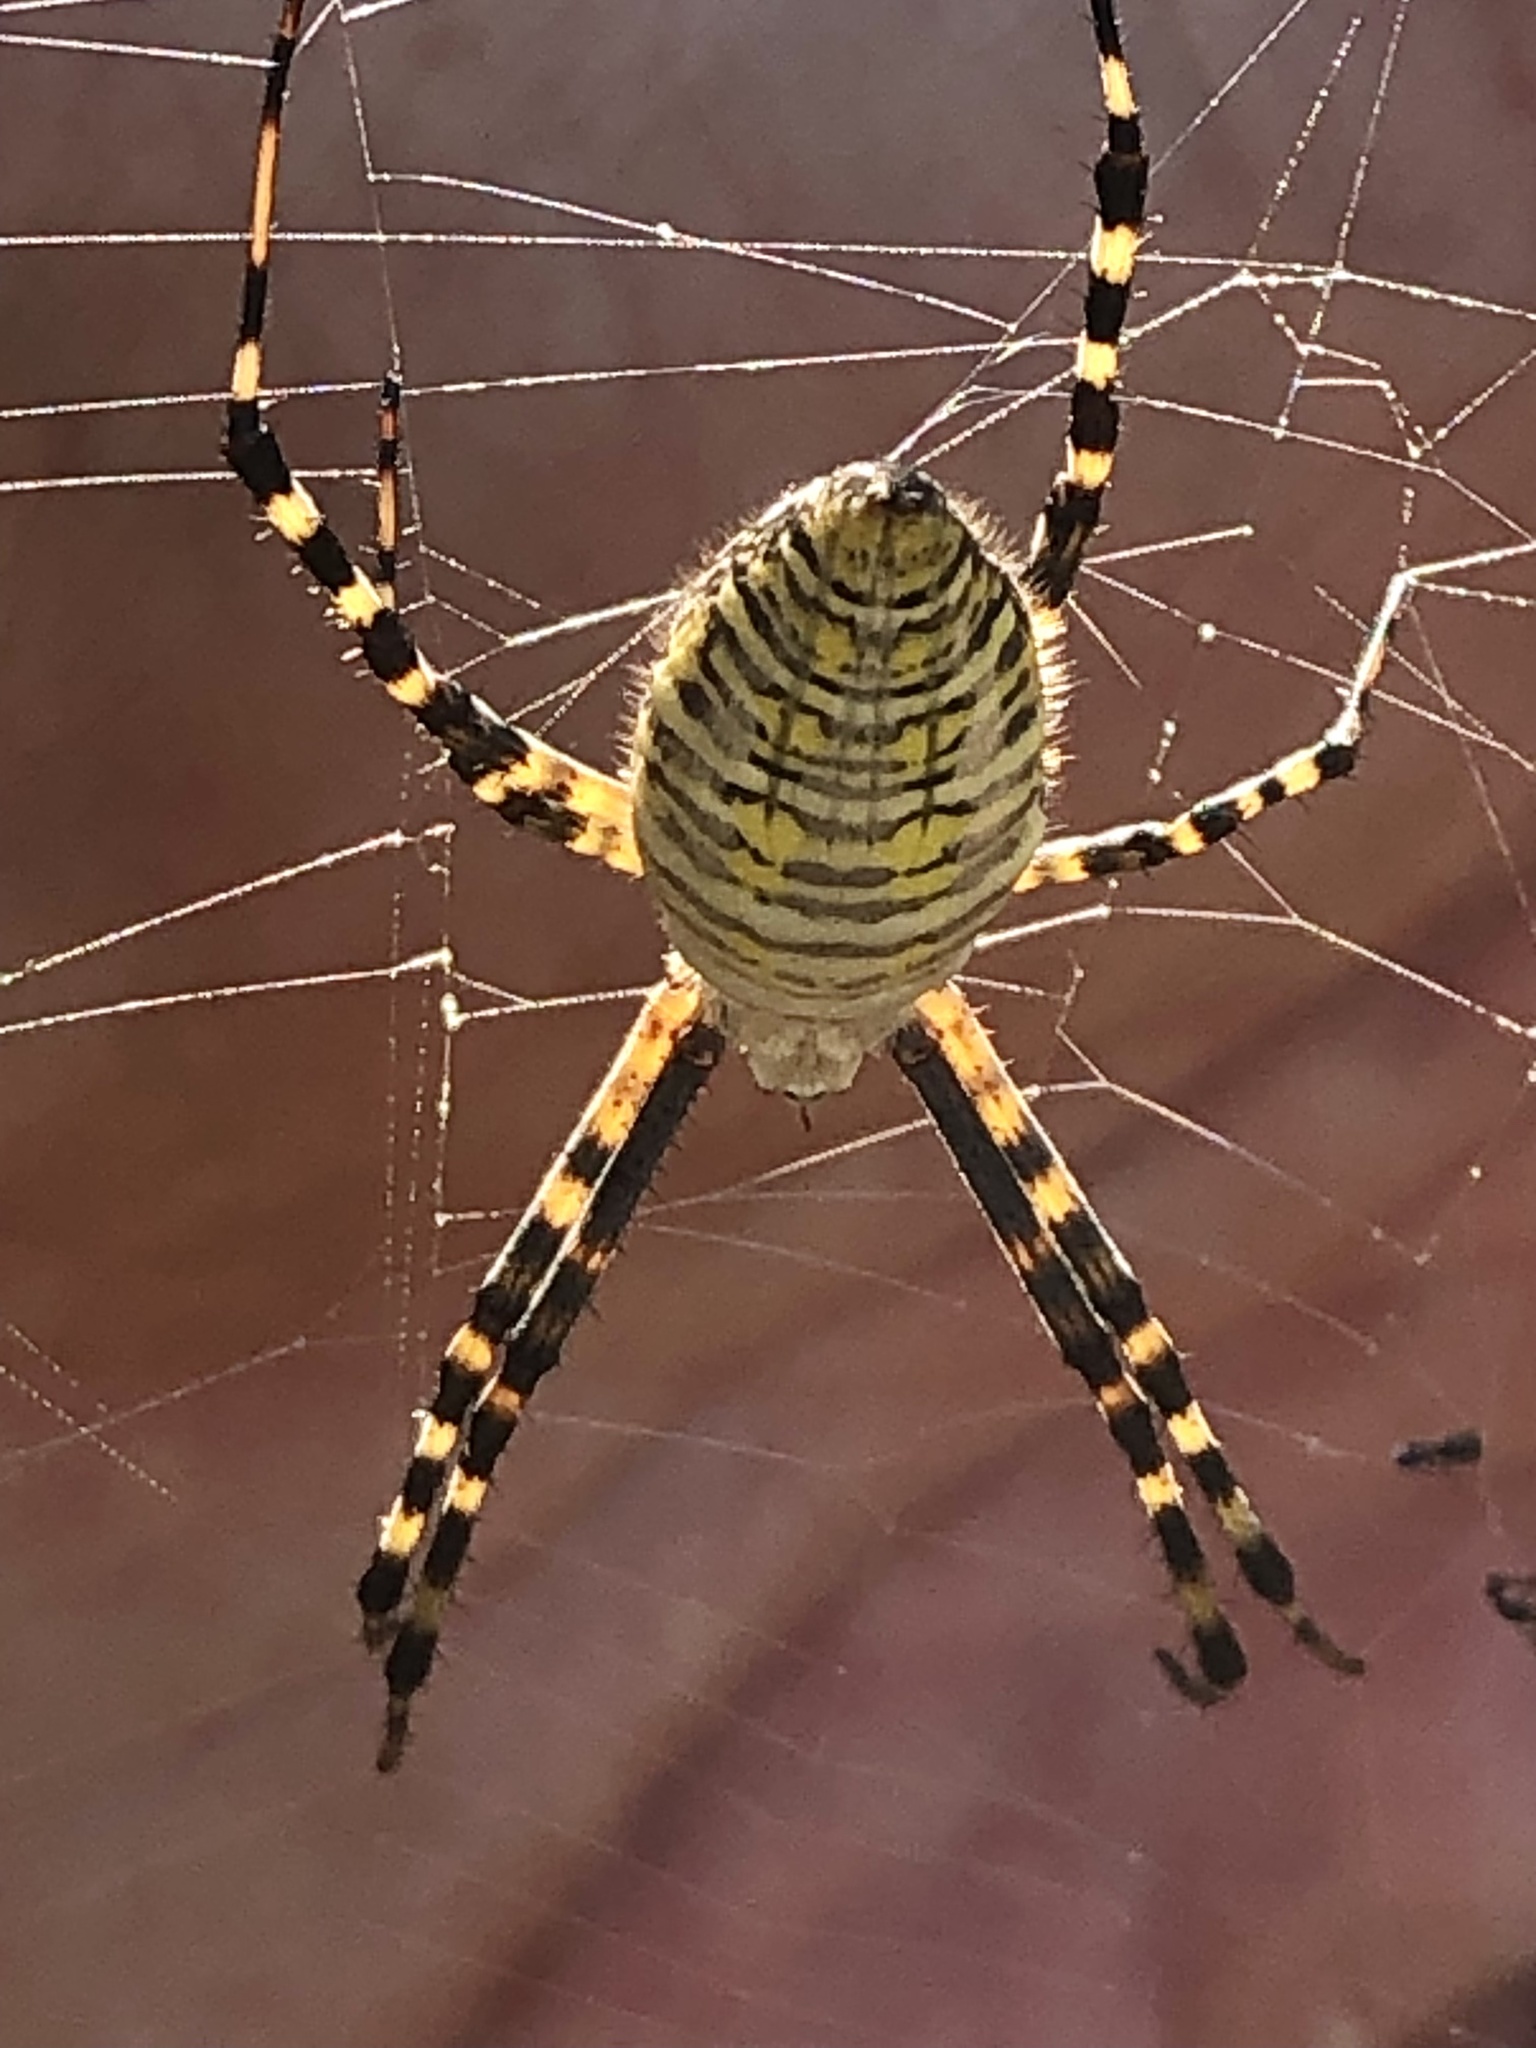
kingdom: Animalia
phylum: Arthropoda
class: Arachnida
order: Araneae
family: Araneidae
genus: Argiope
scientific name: Argiope trifasciata
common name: Banded garden spider
